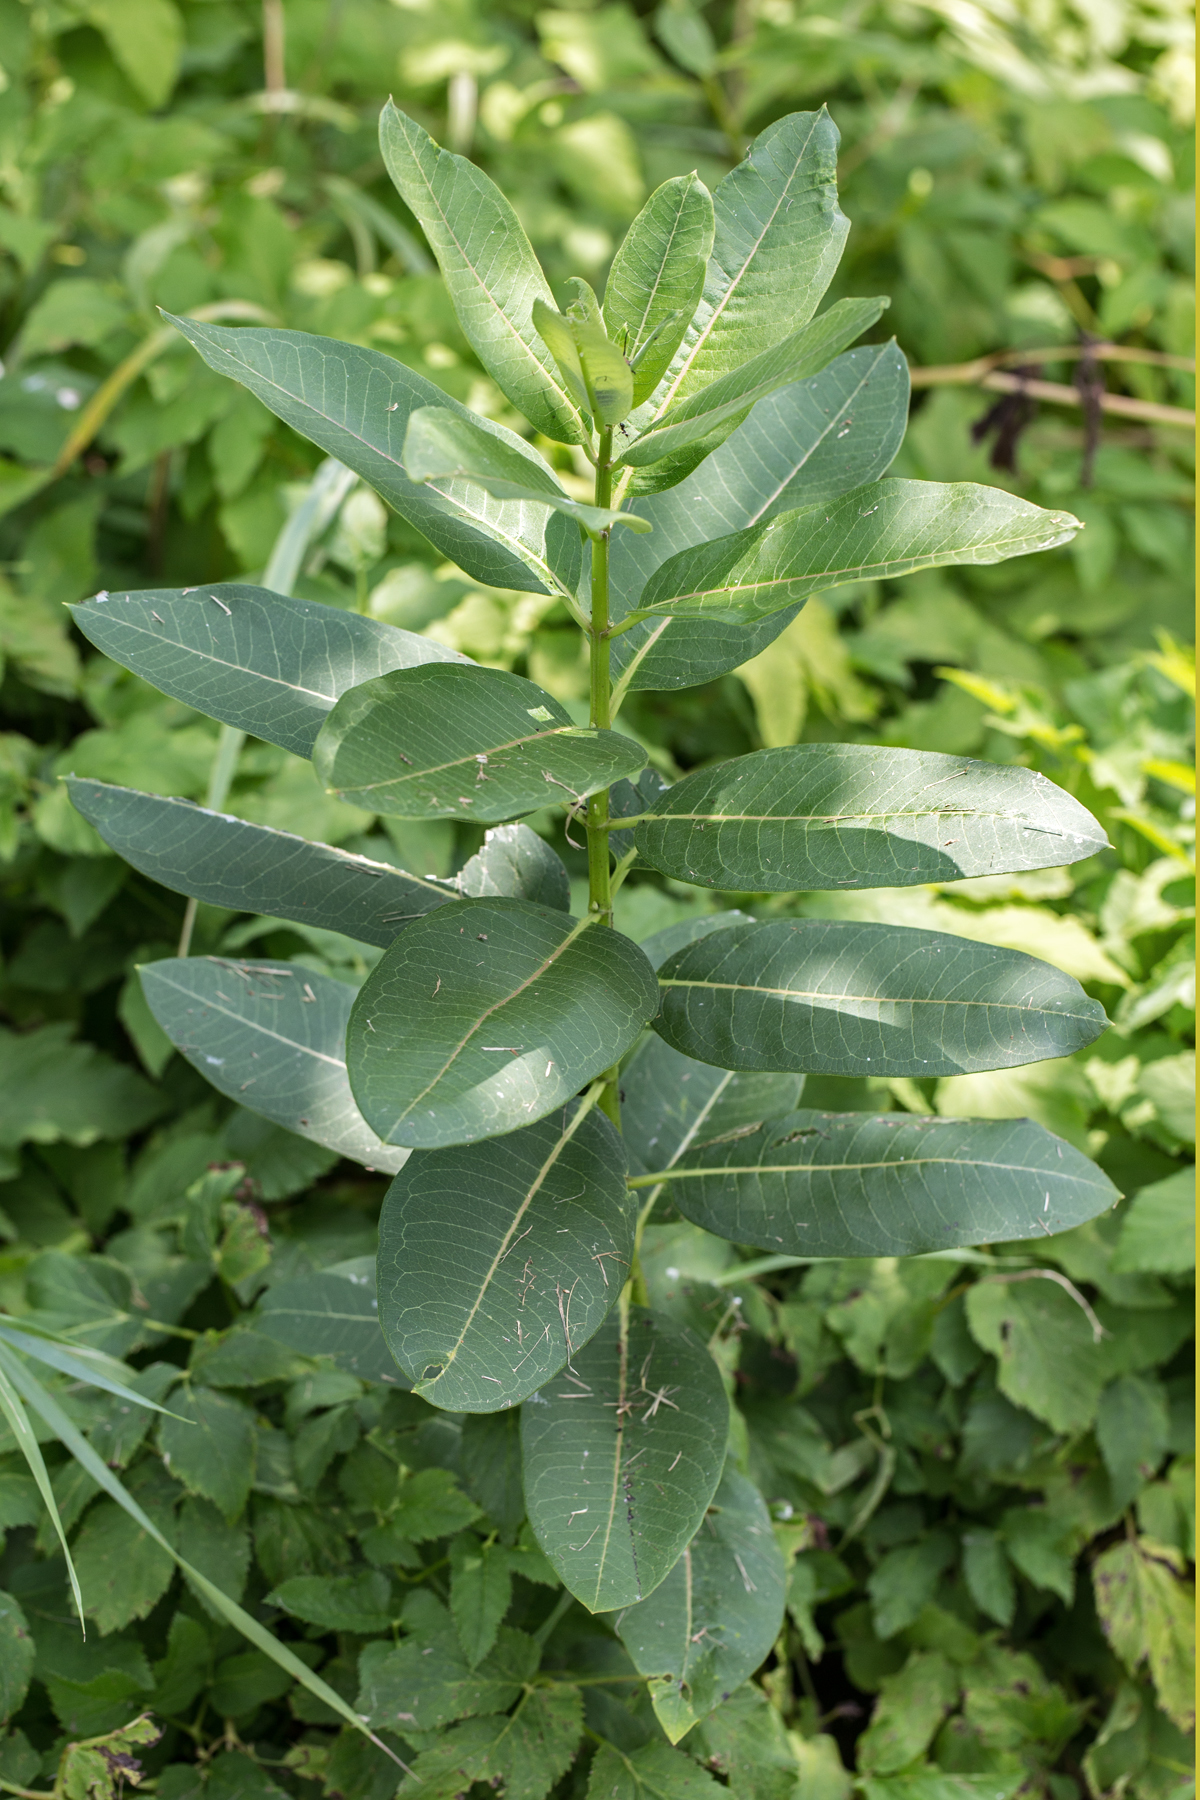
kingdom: Plantae
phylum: Tracheophyta
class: Magnoliopsida
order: Gentianales
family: Apocynaceae
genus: Asclepias
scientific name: Asclepias syriaca
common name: Common milkweed
